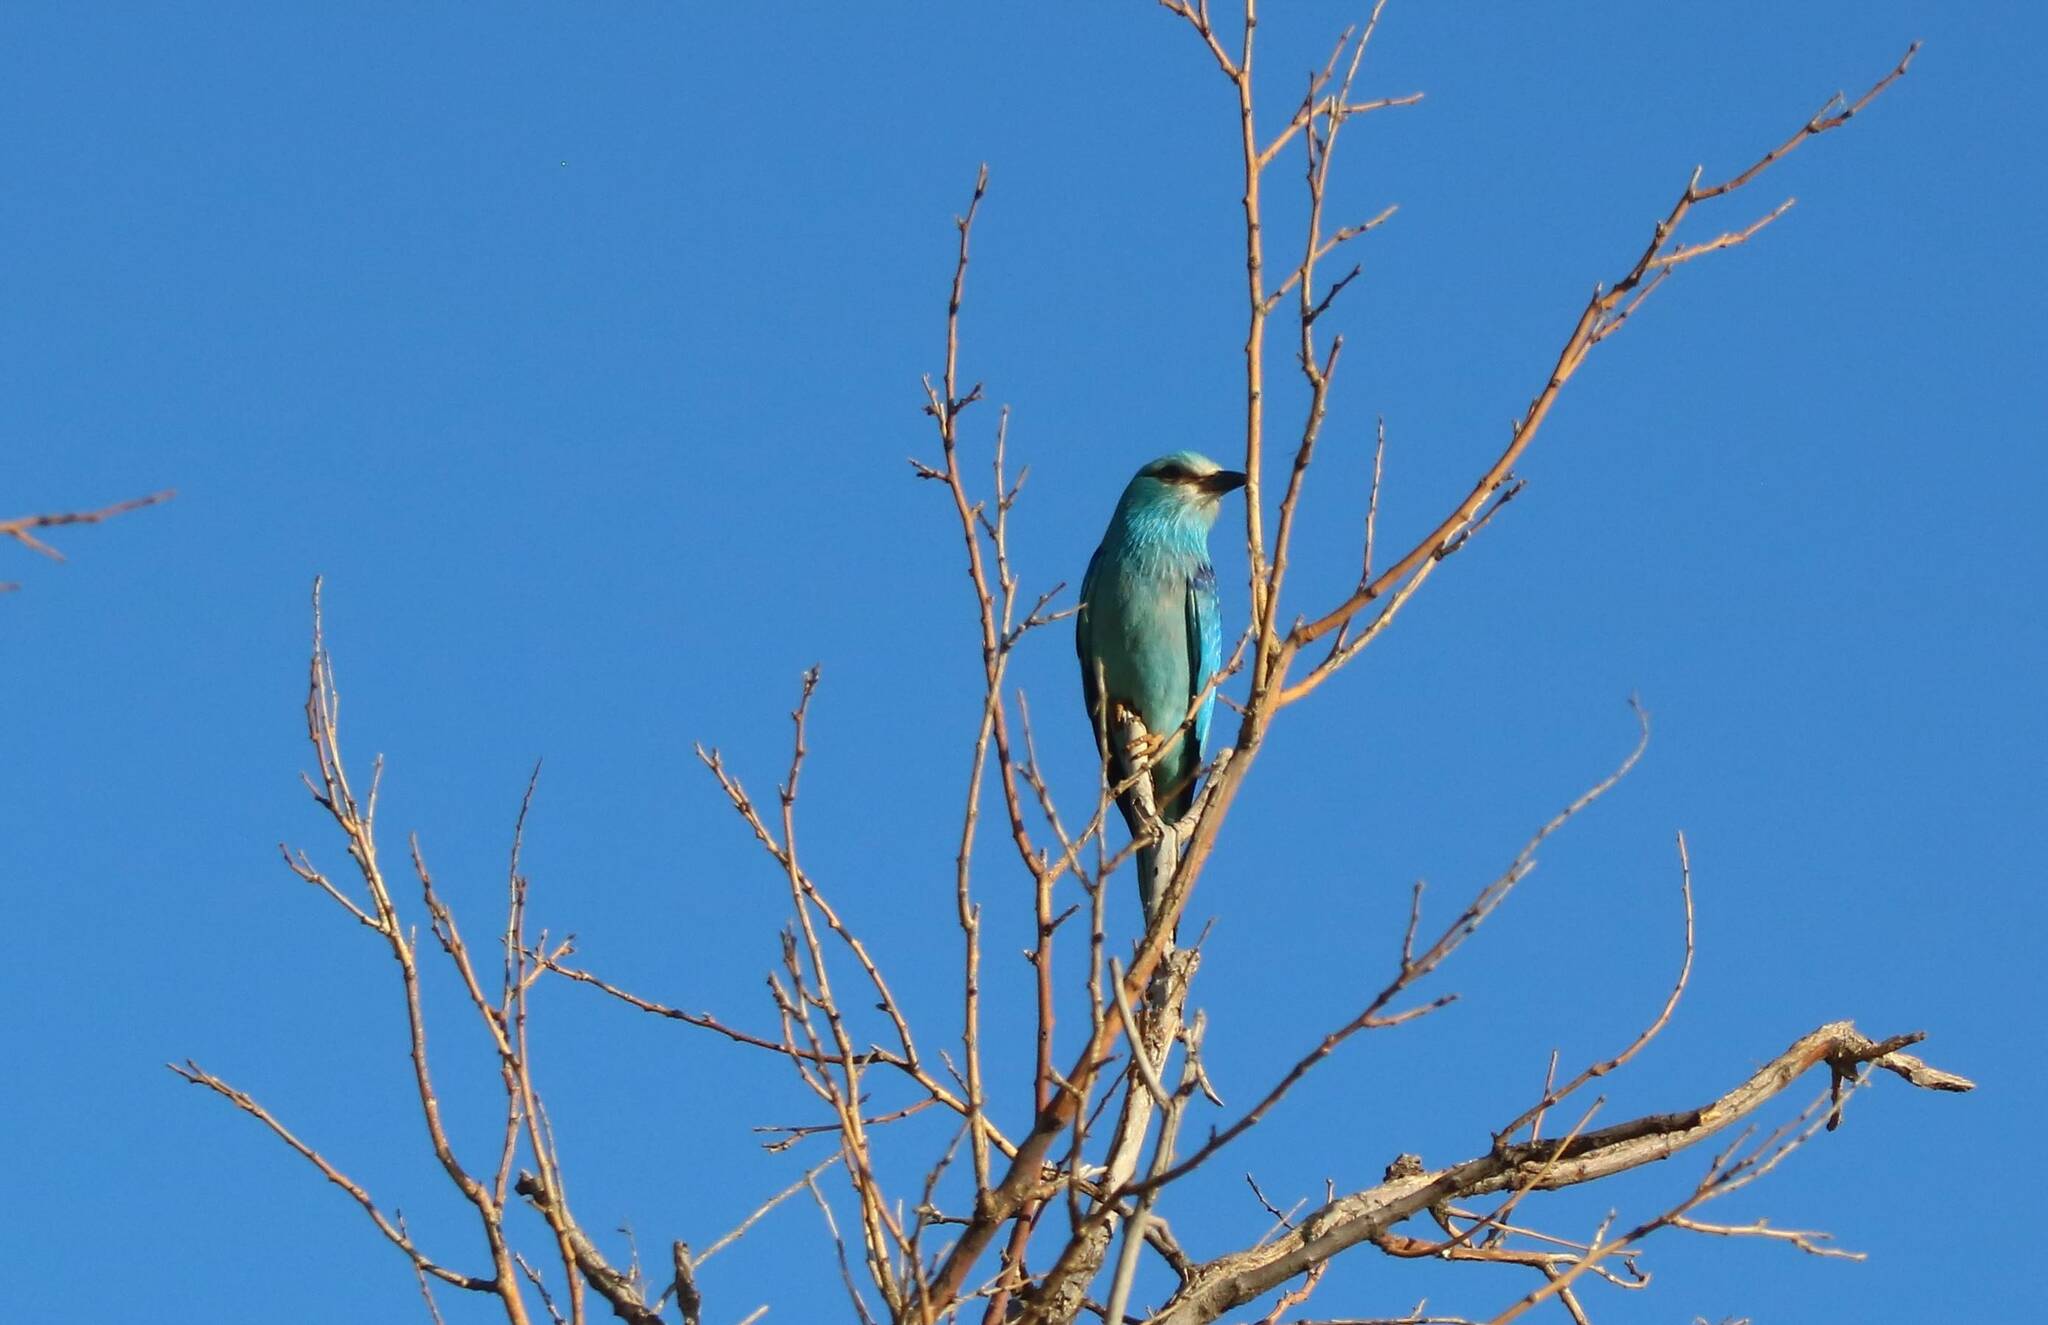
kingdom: Animalia
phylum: Chordata
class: Aves
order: Coraciiformes
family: Coraciidae
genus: Coracias
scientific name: Coracias garrulus
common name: European roller
